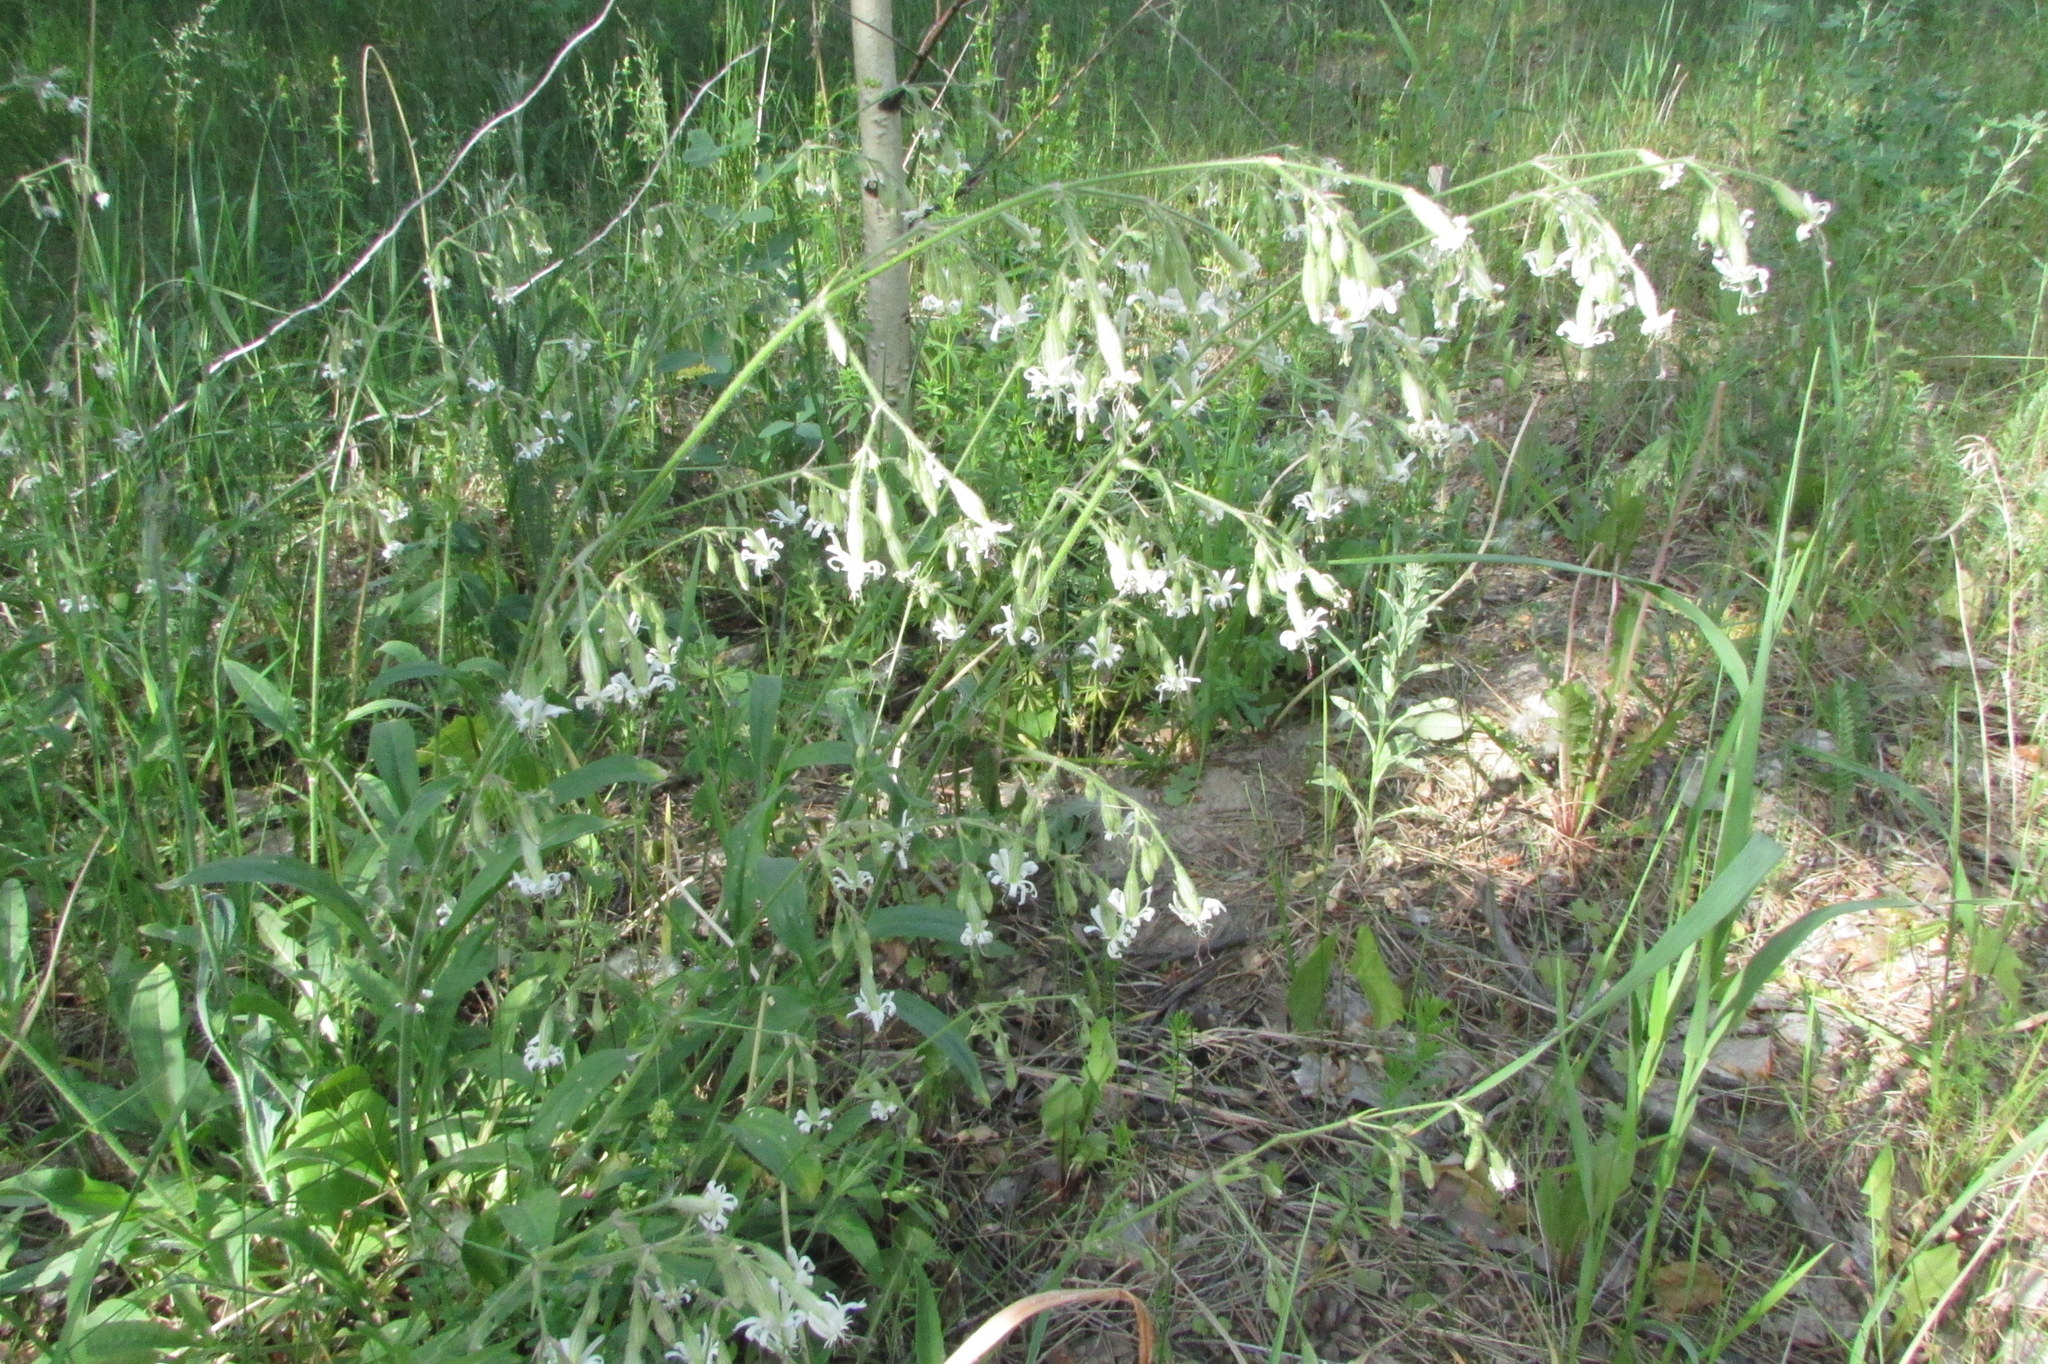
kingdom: Plantae
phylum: Tracheophyta
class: Magnoliopsida
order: Caryophyllales
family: Caryophyllaceae
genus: Silene
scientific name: Silene nutans
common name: Nottingham catchfly
